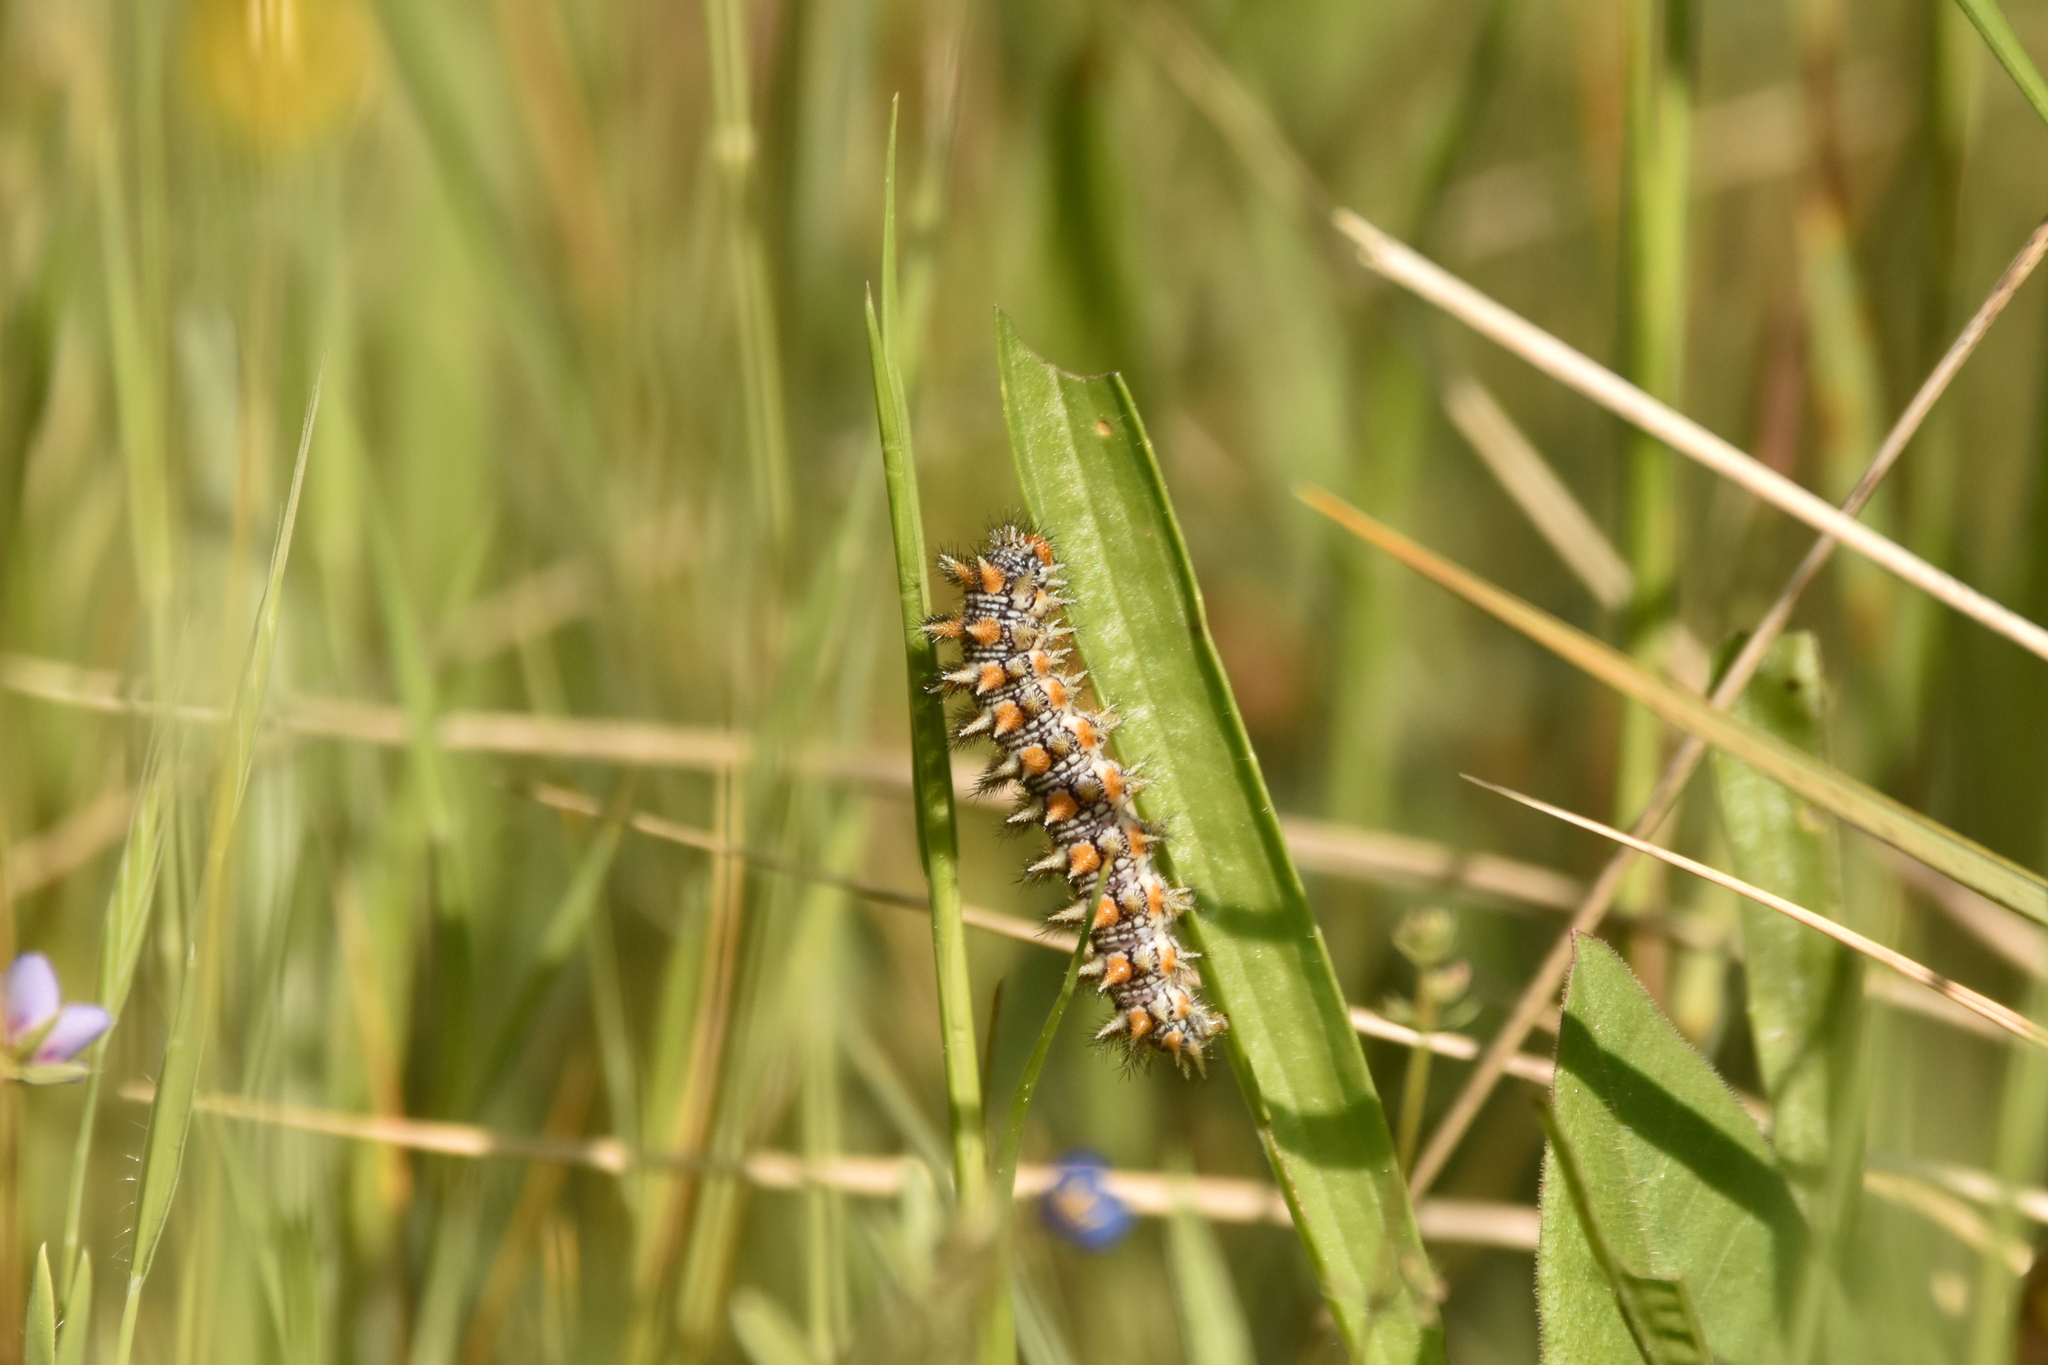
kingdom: Animalia
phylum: Arthropoda
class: Insecta
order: Lepidoptera
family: Nymphalidae
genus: Melitaea
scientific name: Melitaea didyma
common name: Spotted fritillary
